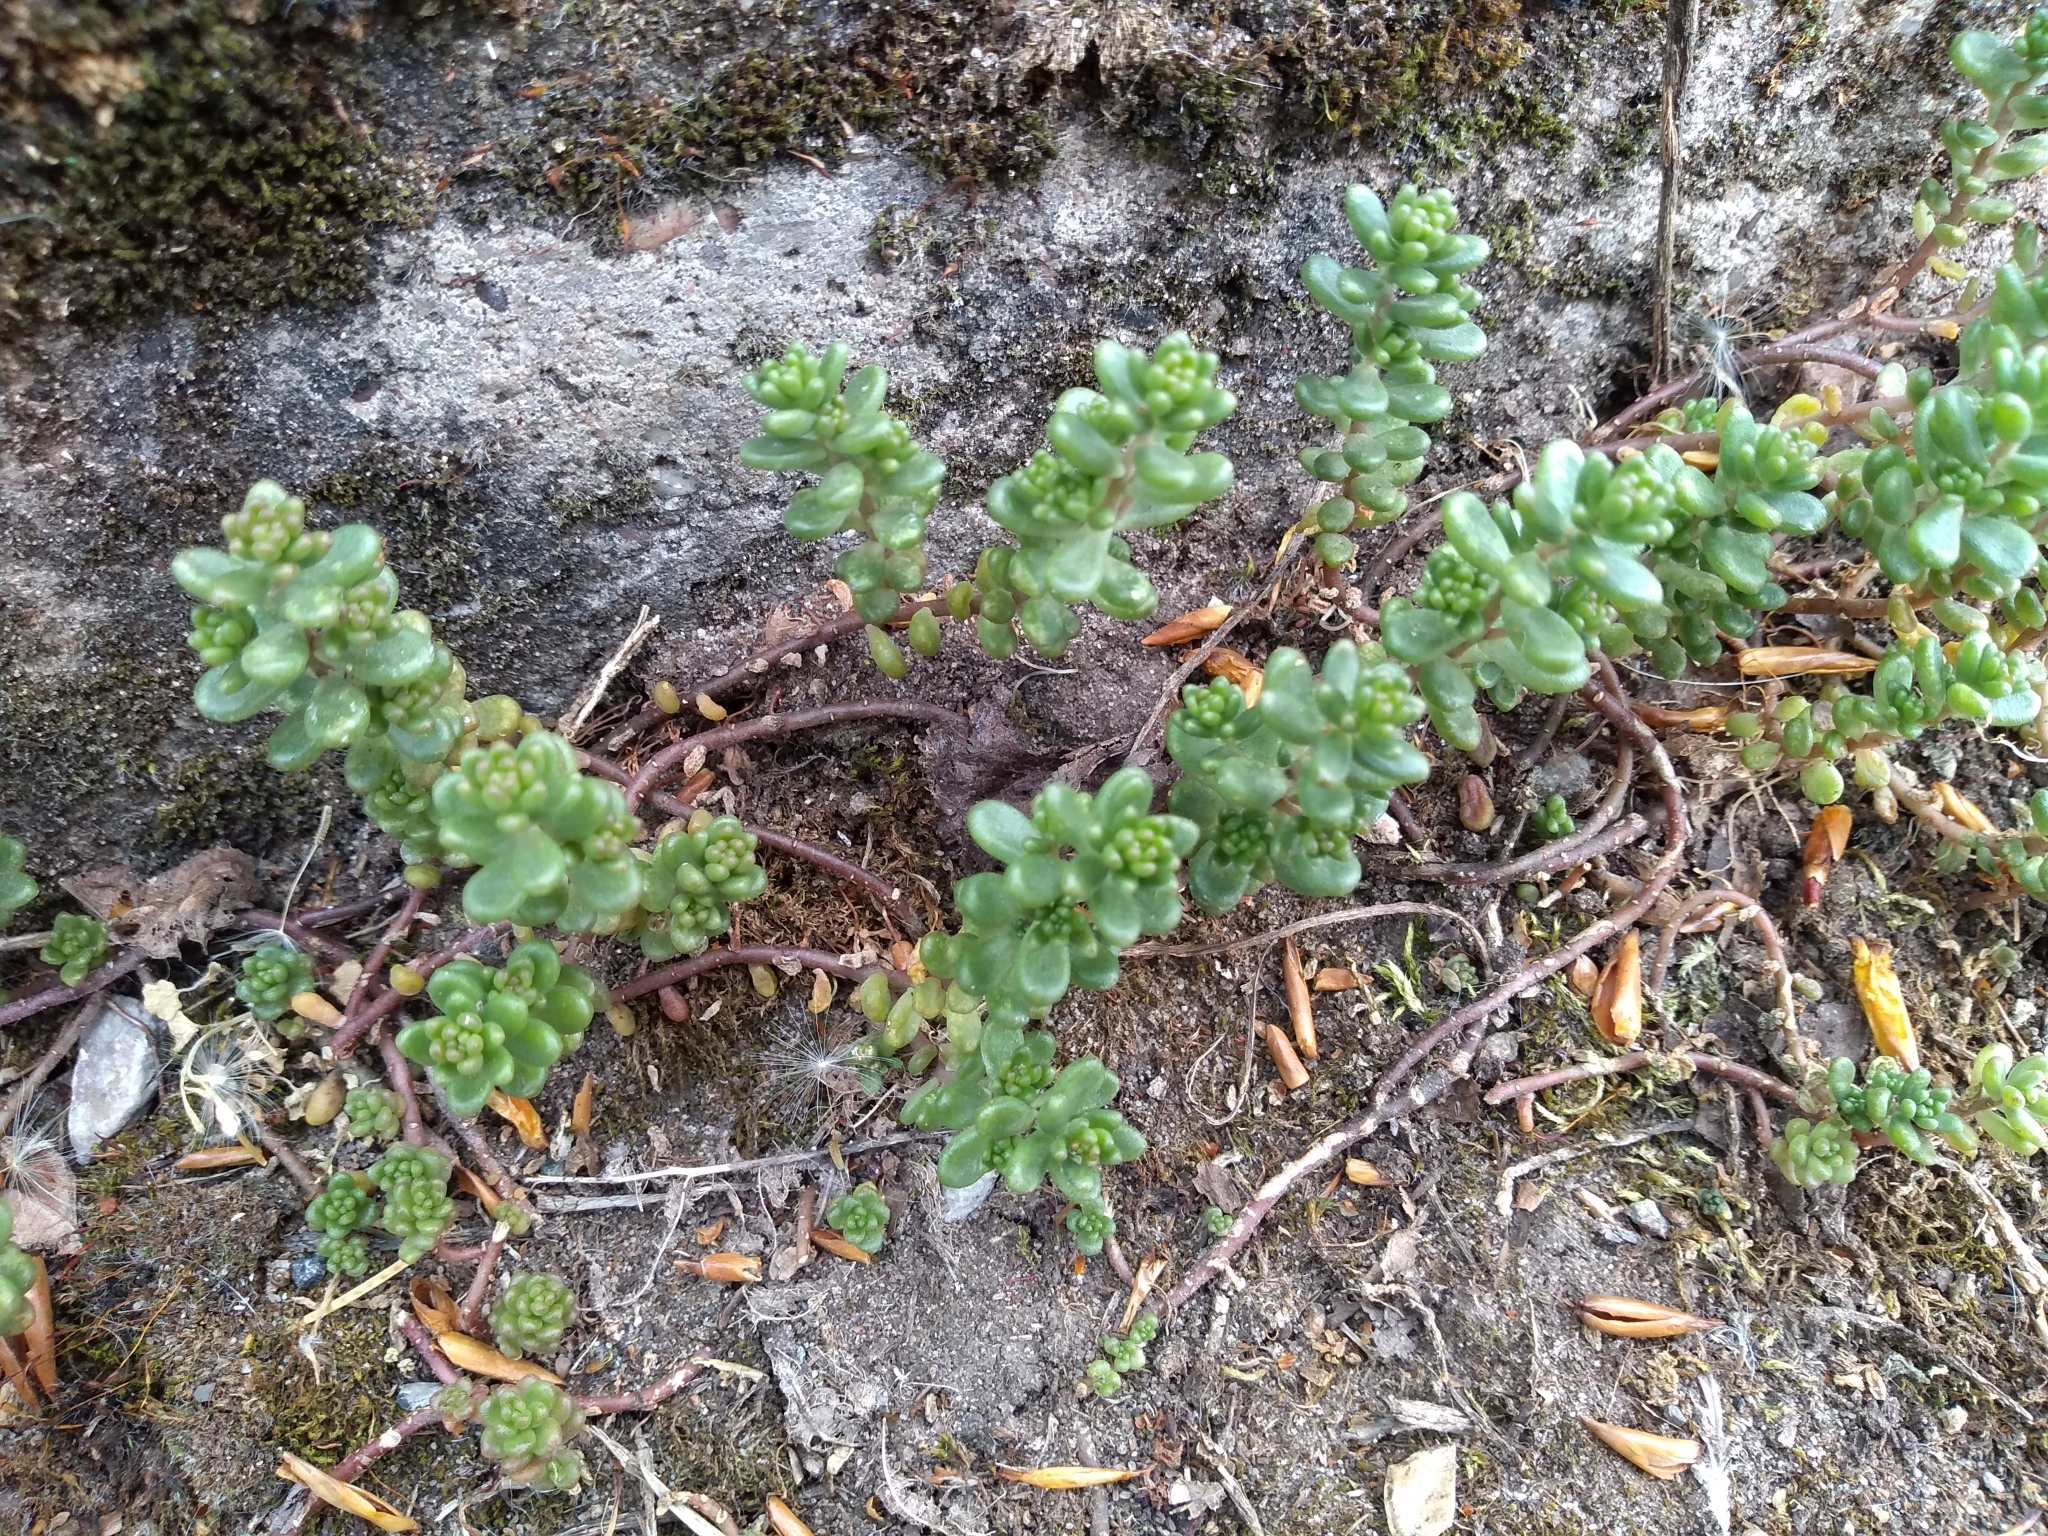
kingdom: Plantae
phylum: Tracheophyta
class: Magnoliopsida
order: Saxifragales
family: Crassulaceae
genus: Sedum
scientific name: Sedum album
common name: White stonecrop
